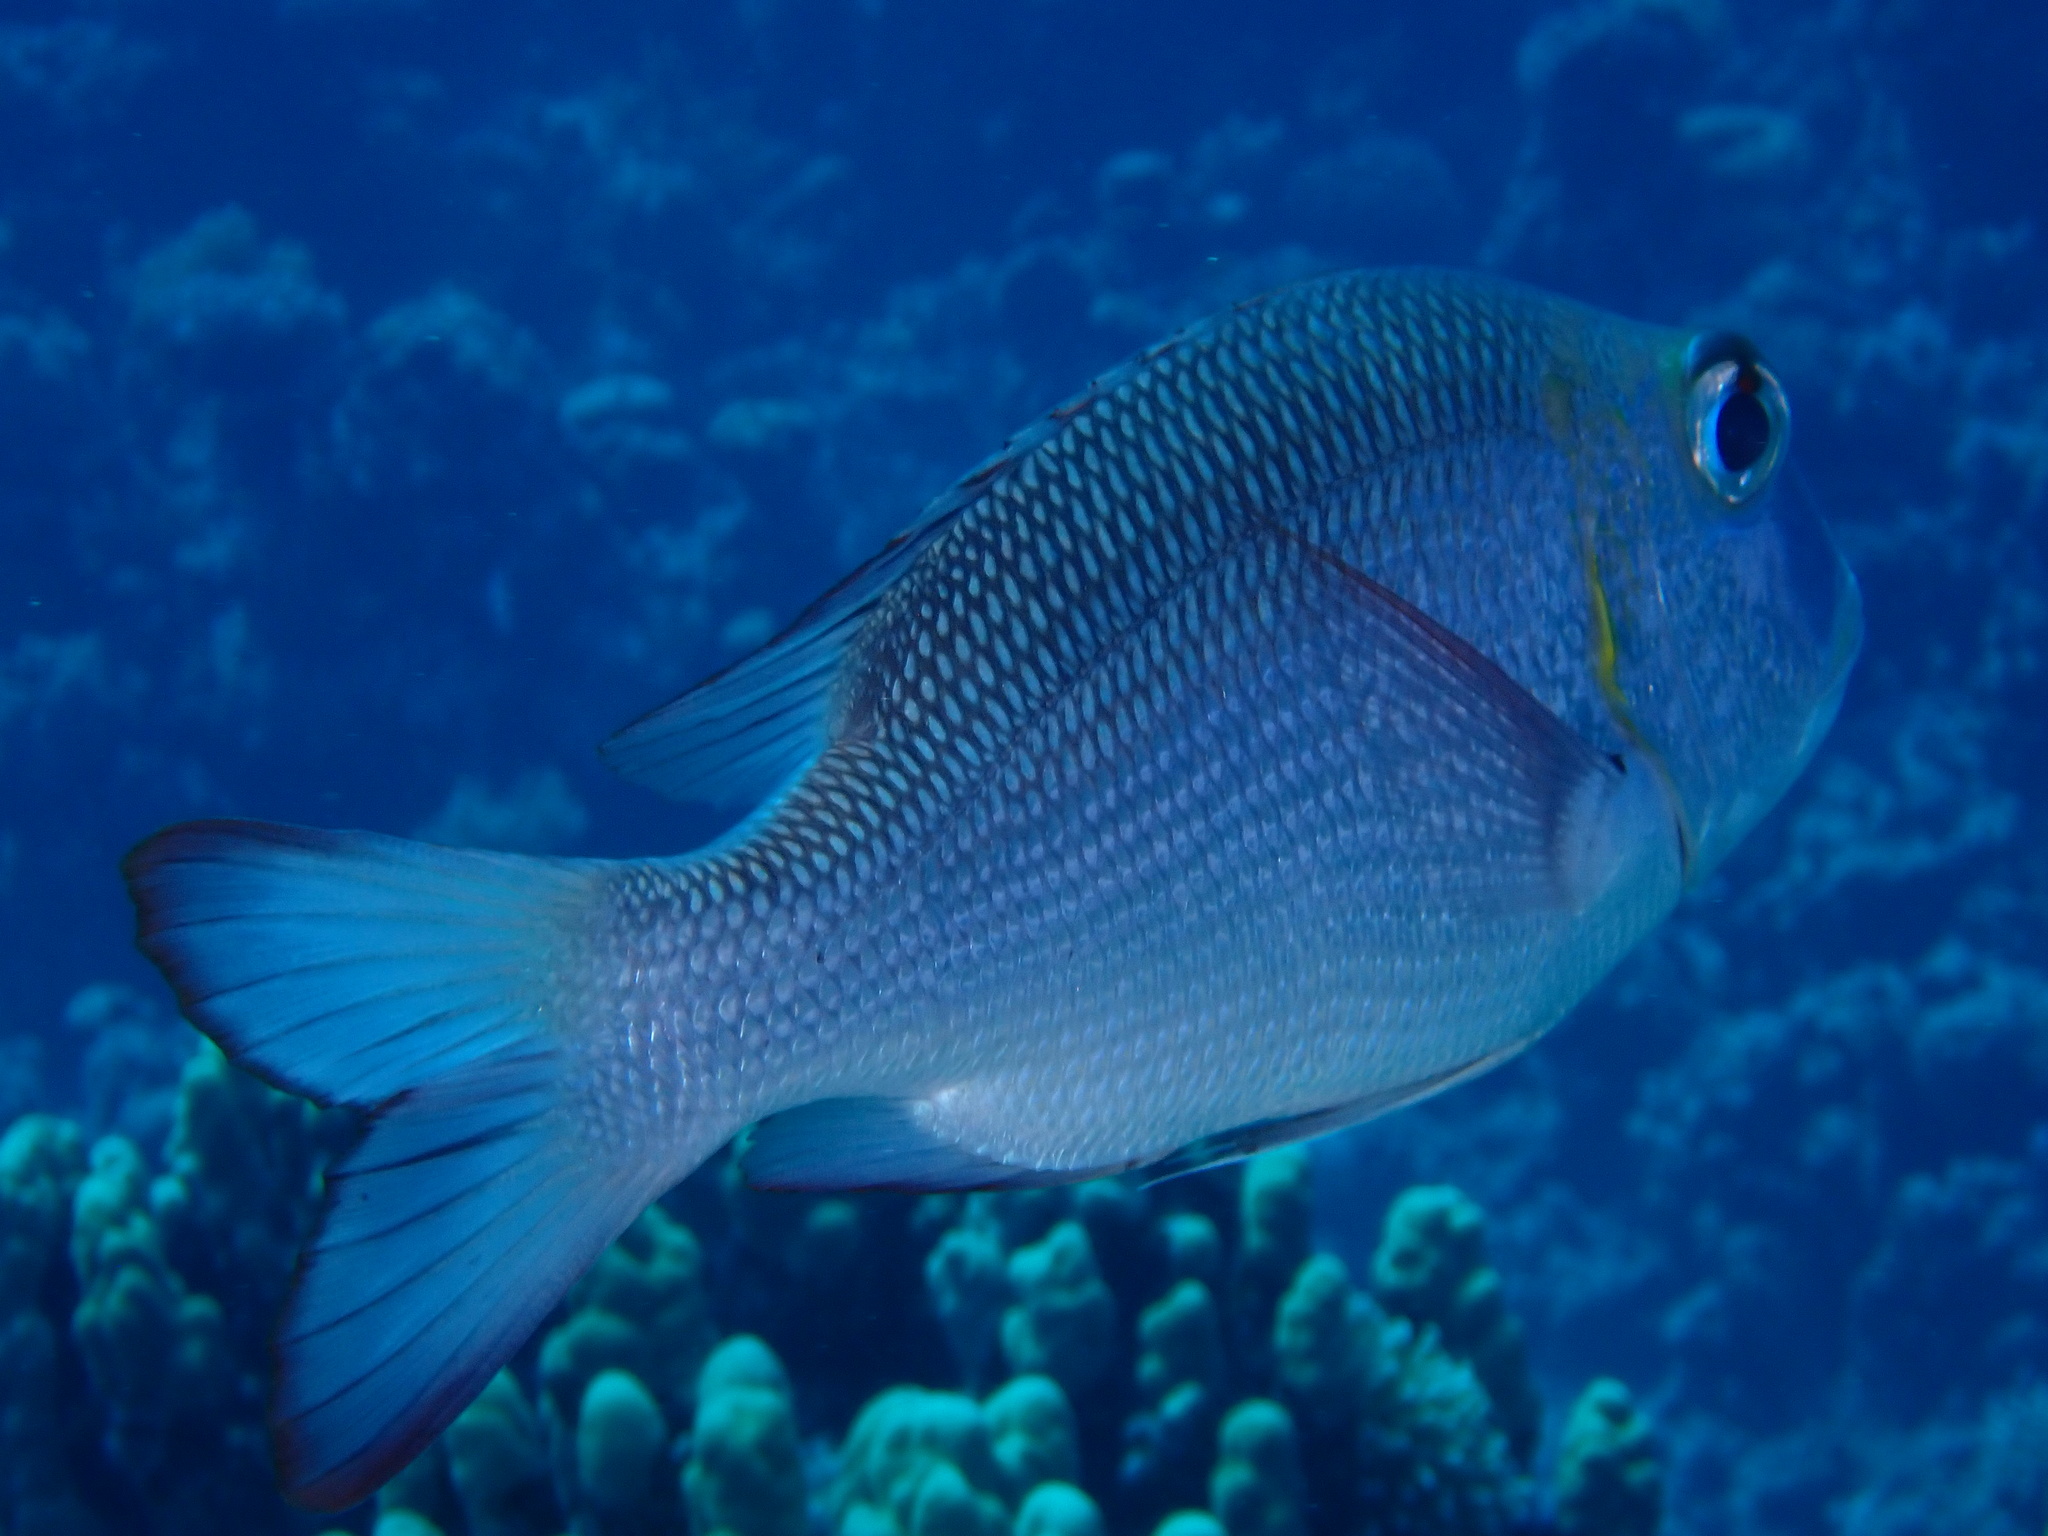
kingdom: Animalia
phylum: Chordata
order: Perciformes
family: Lethrinidae
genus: Monotaxis
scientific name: Monotaxis grandoculis
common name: Bigeye emperor
